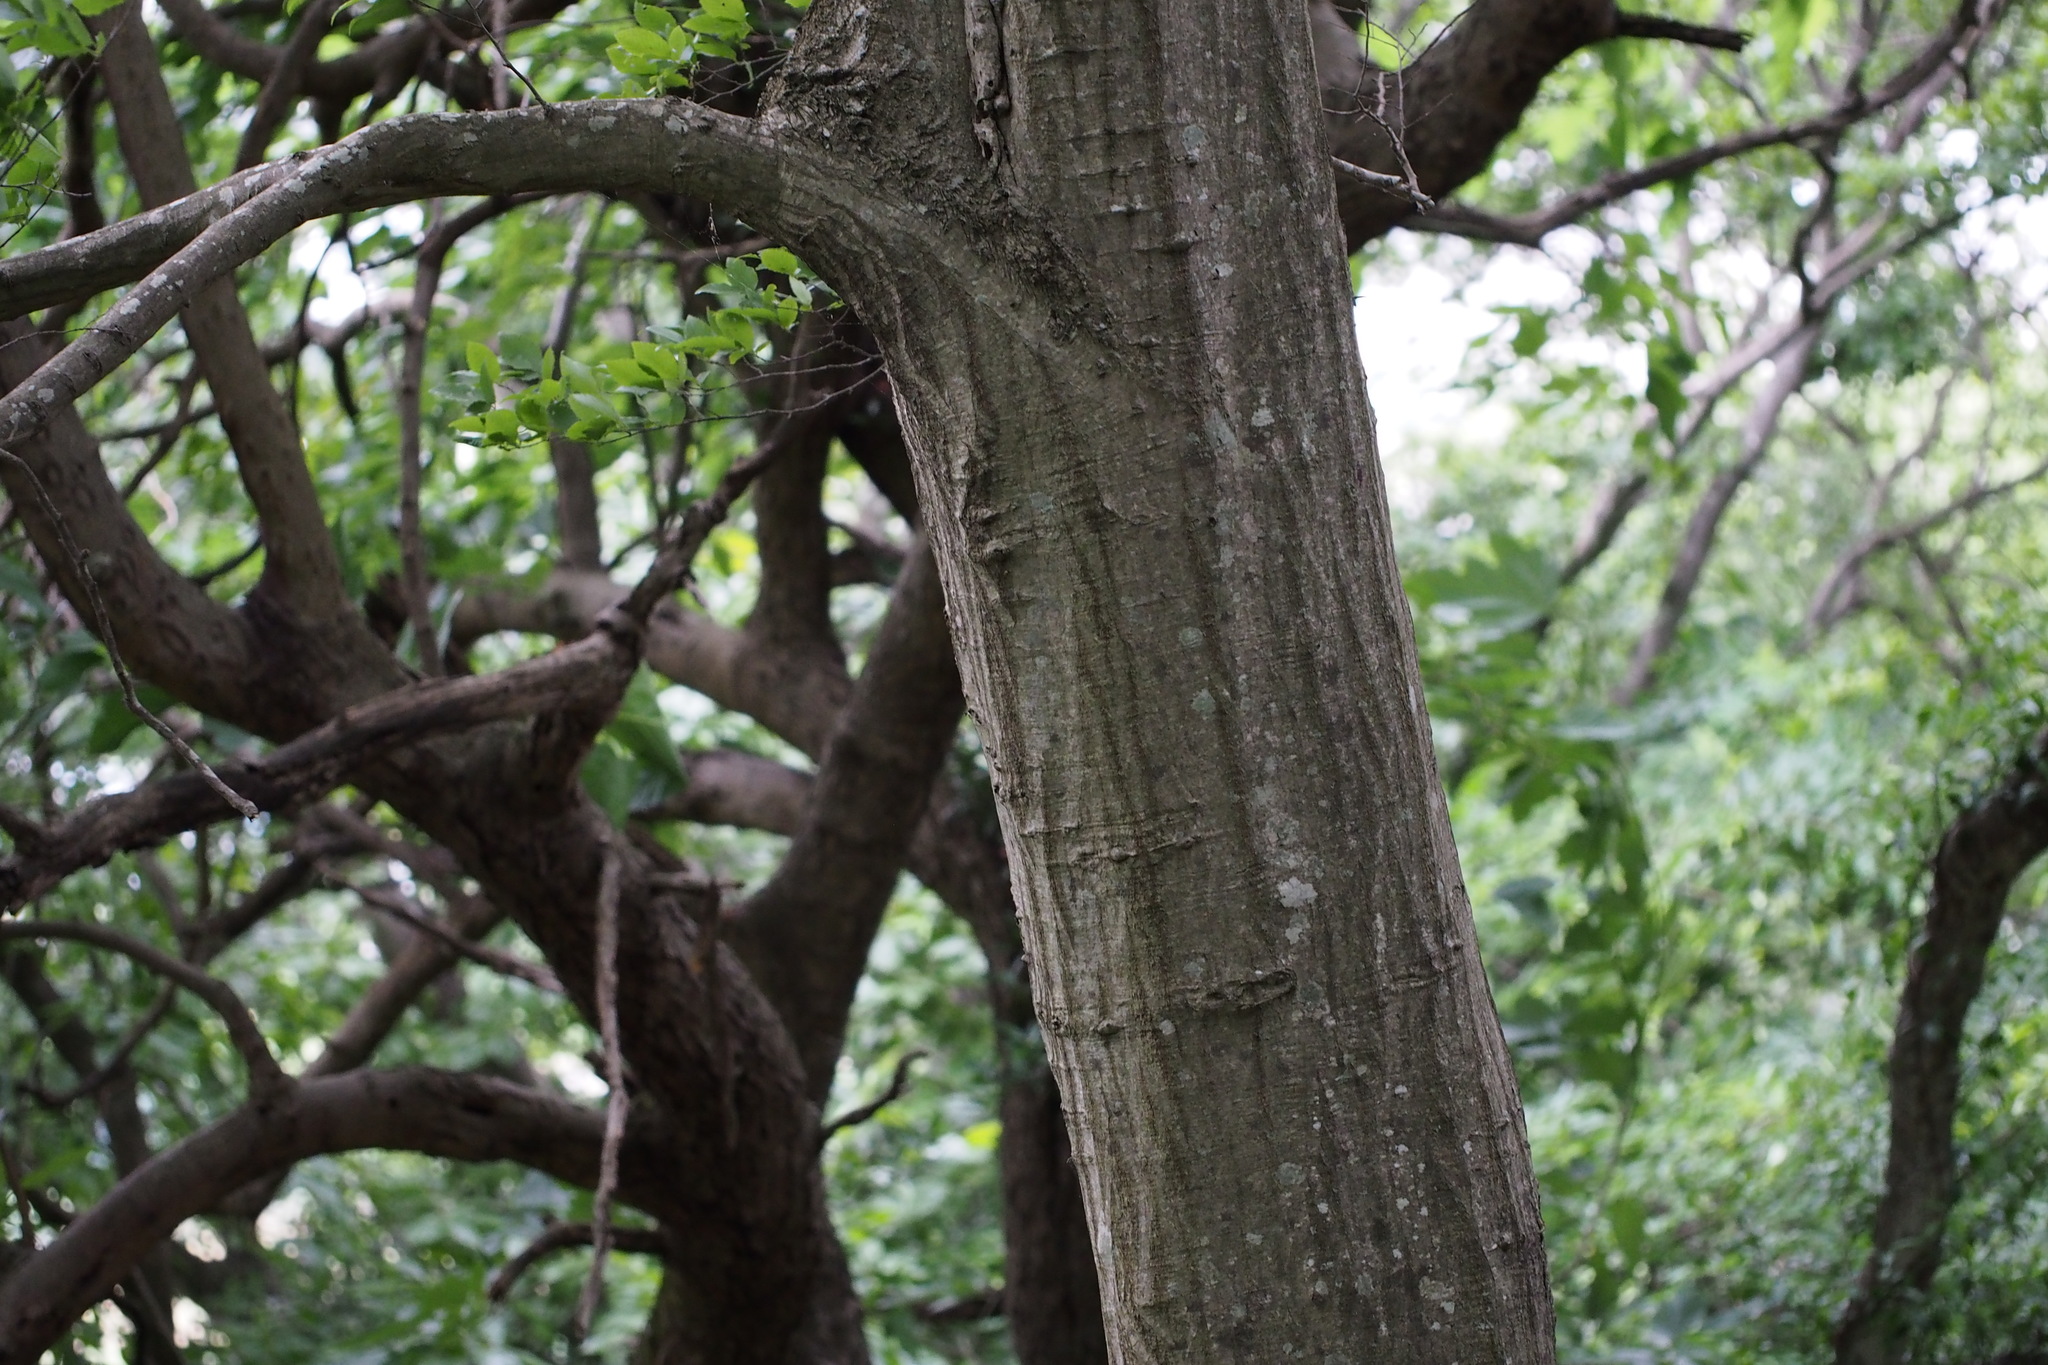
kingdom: Plantae
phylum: Tracheophyta
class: Magnoliopsida
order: Fagales
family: Betulaceae
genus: Carpinus
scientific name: Carpinus tschonoskii
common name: Asian hornbeam
